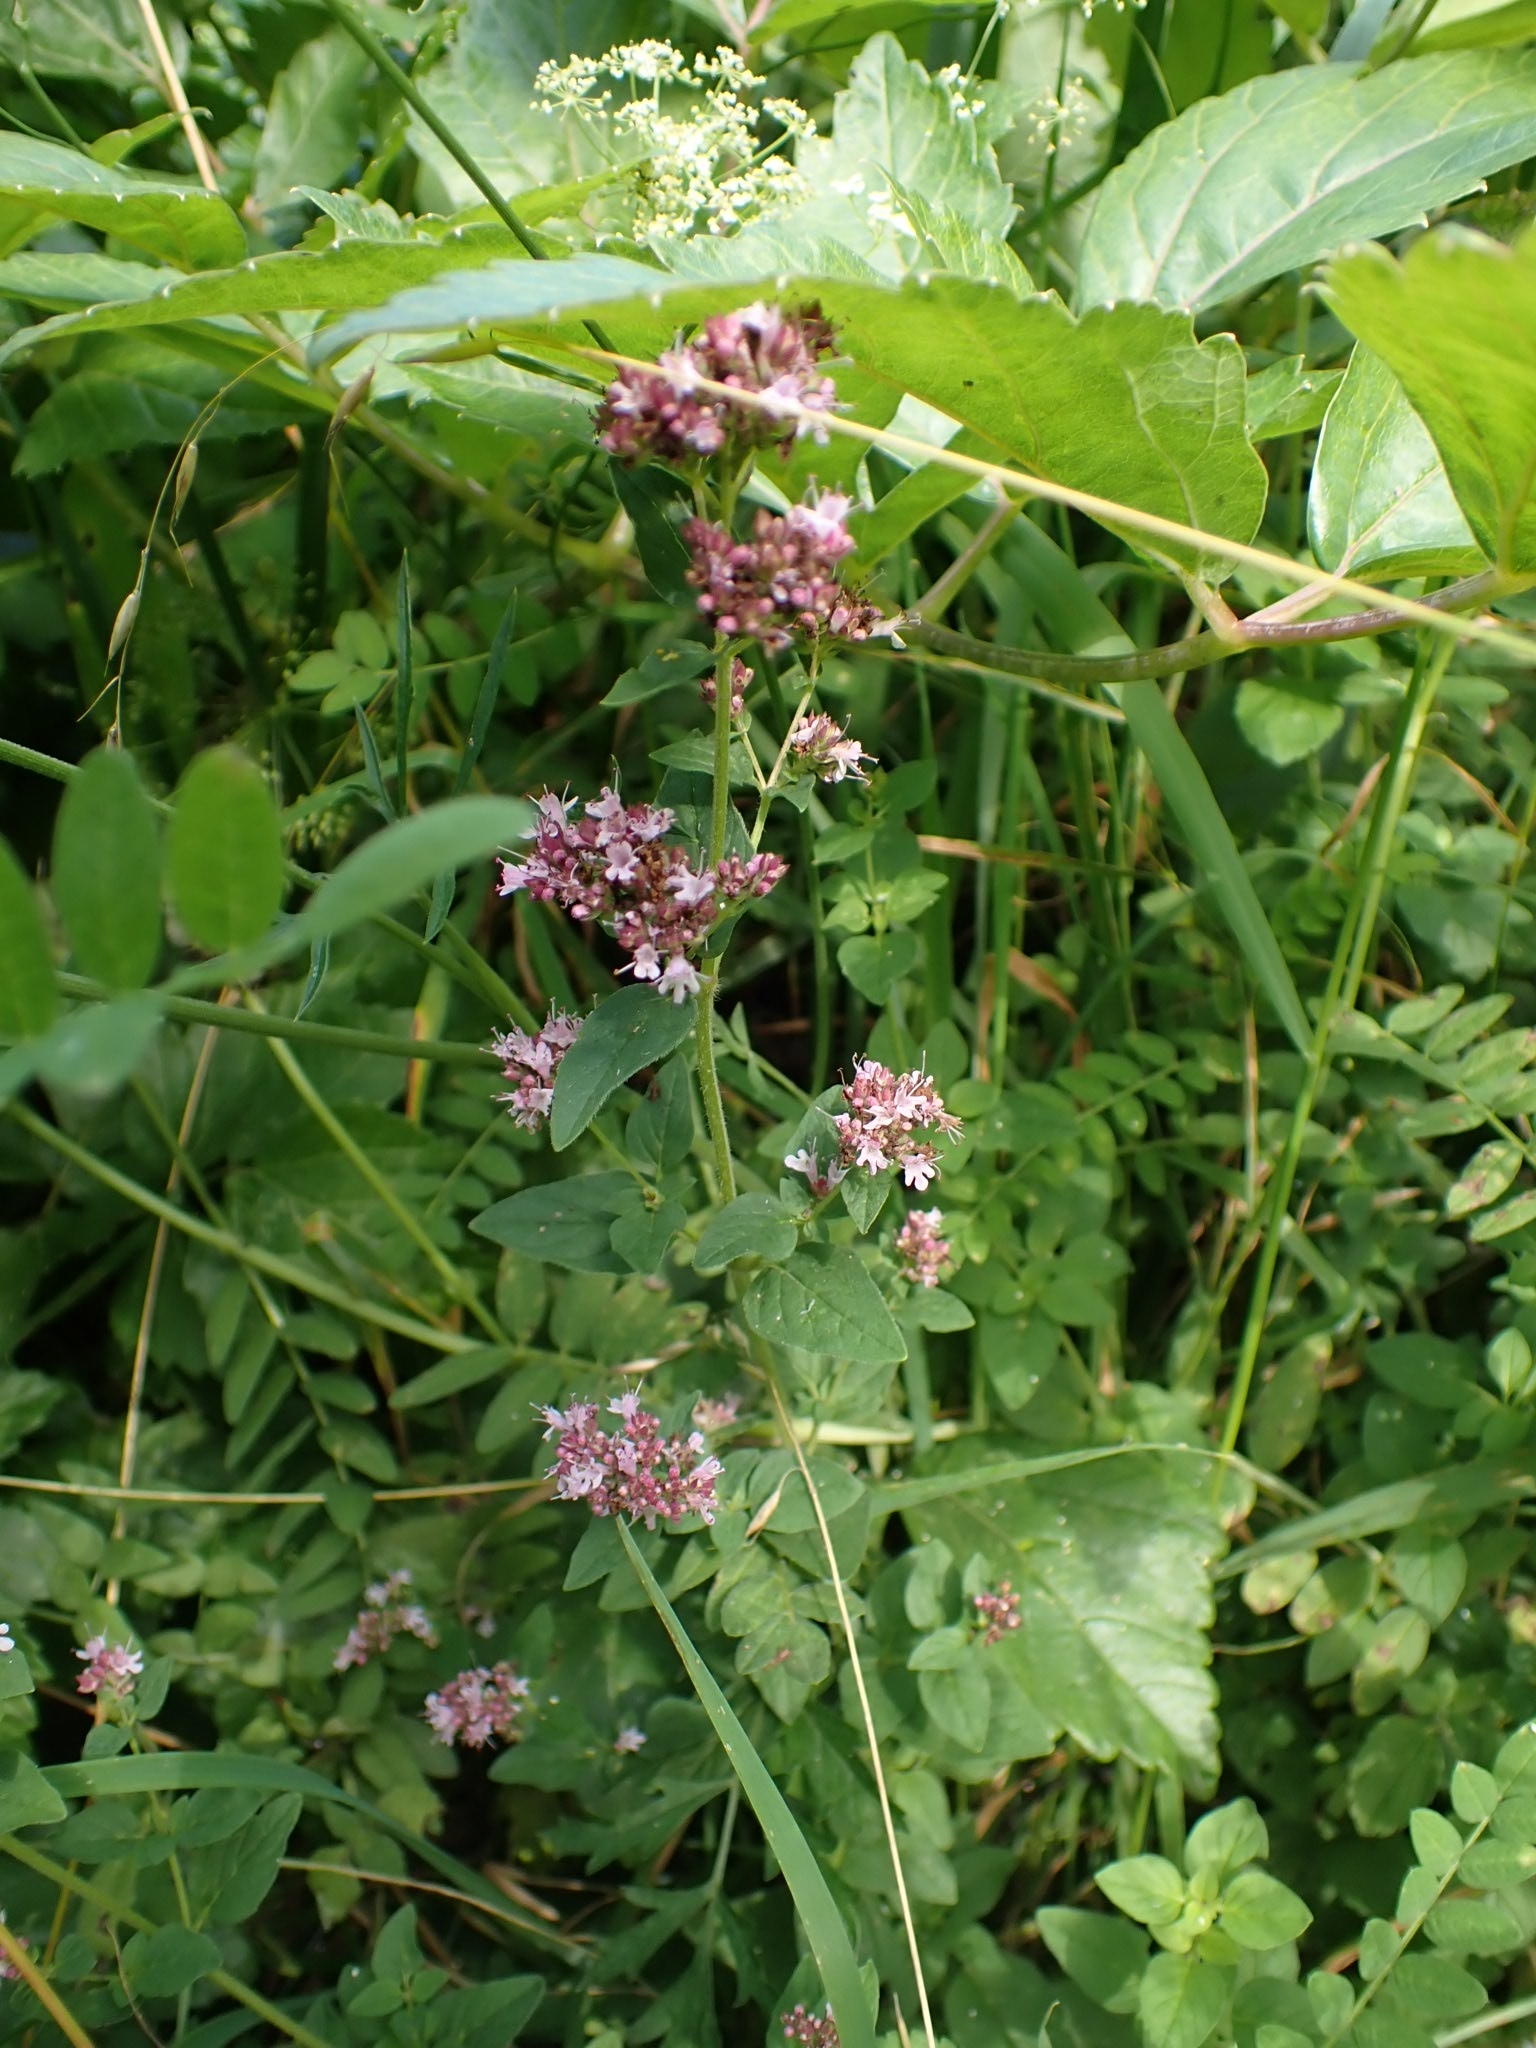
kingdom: Plantae
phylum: Tracheophyta
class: Magnoliopsida
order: Lamiales
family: Lamiaceae
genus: Origanum
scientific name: Origanum vulgare
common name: Wild marjoram
